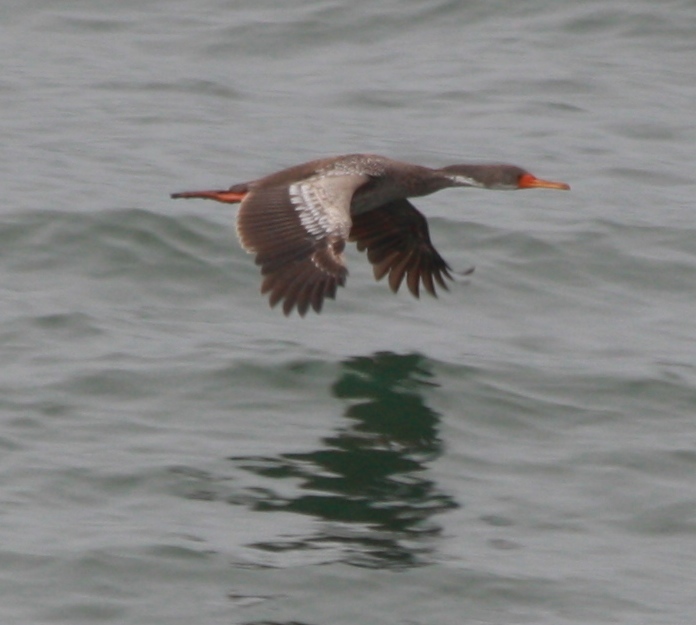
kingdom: Animalia
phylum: Chordata
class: Aves
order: Suliformes
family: Phalacrocoracidae
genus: Phalacrocorax
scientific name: Phalacrocorax gaimardi
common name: Red-legged cormorant
